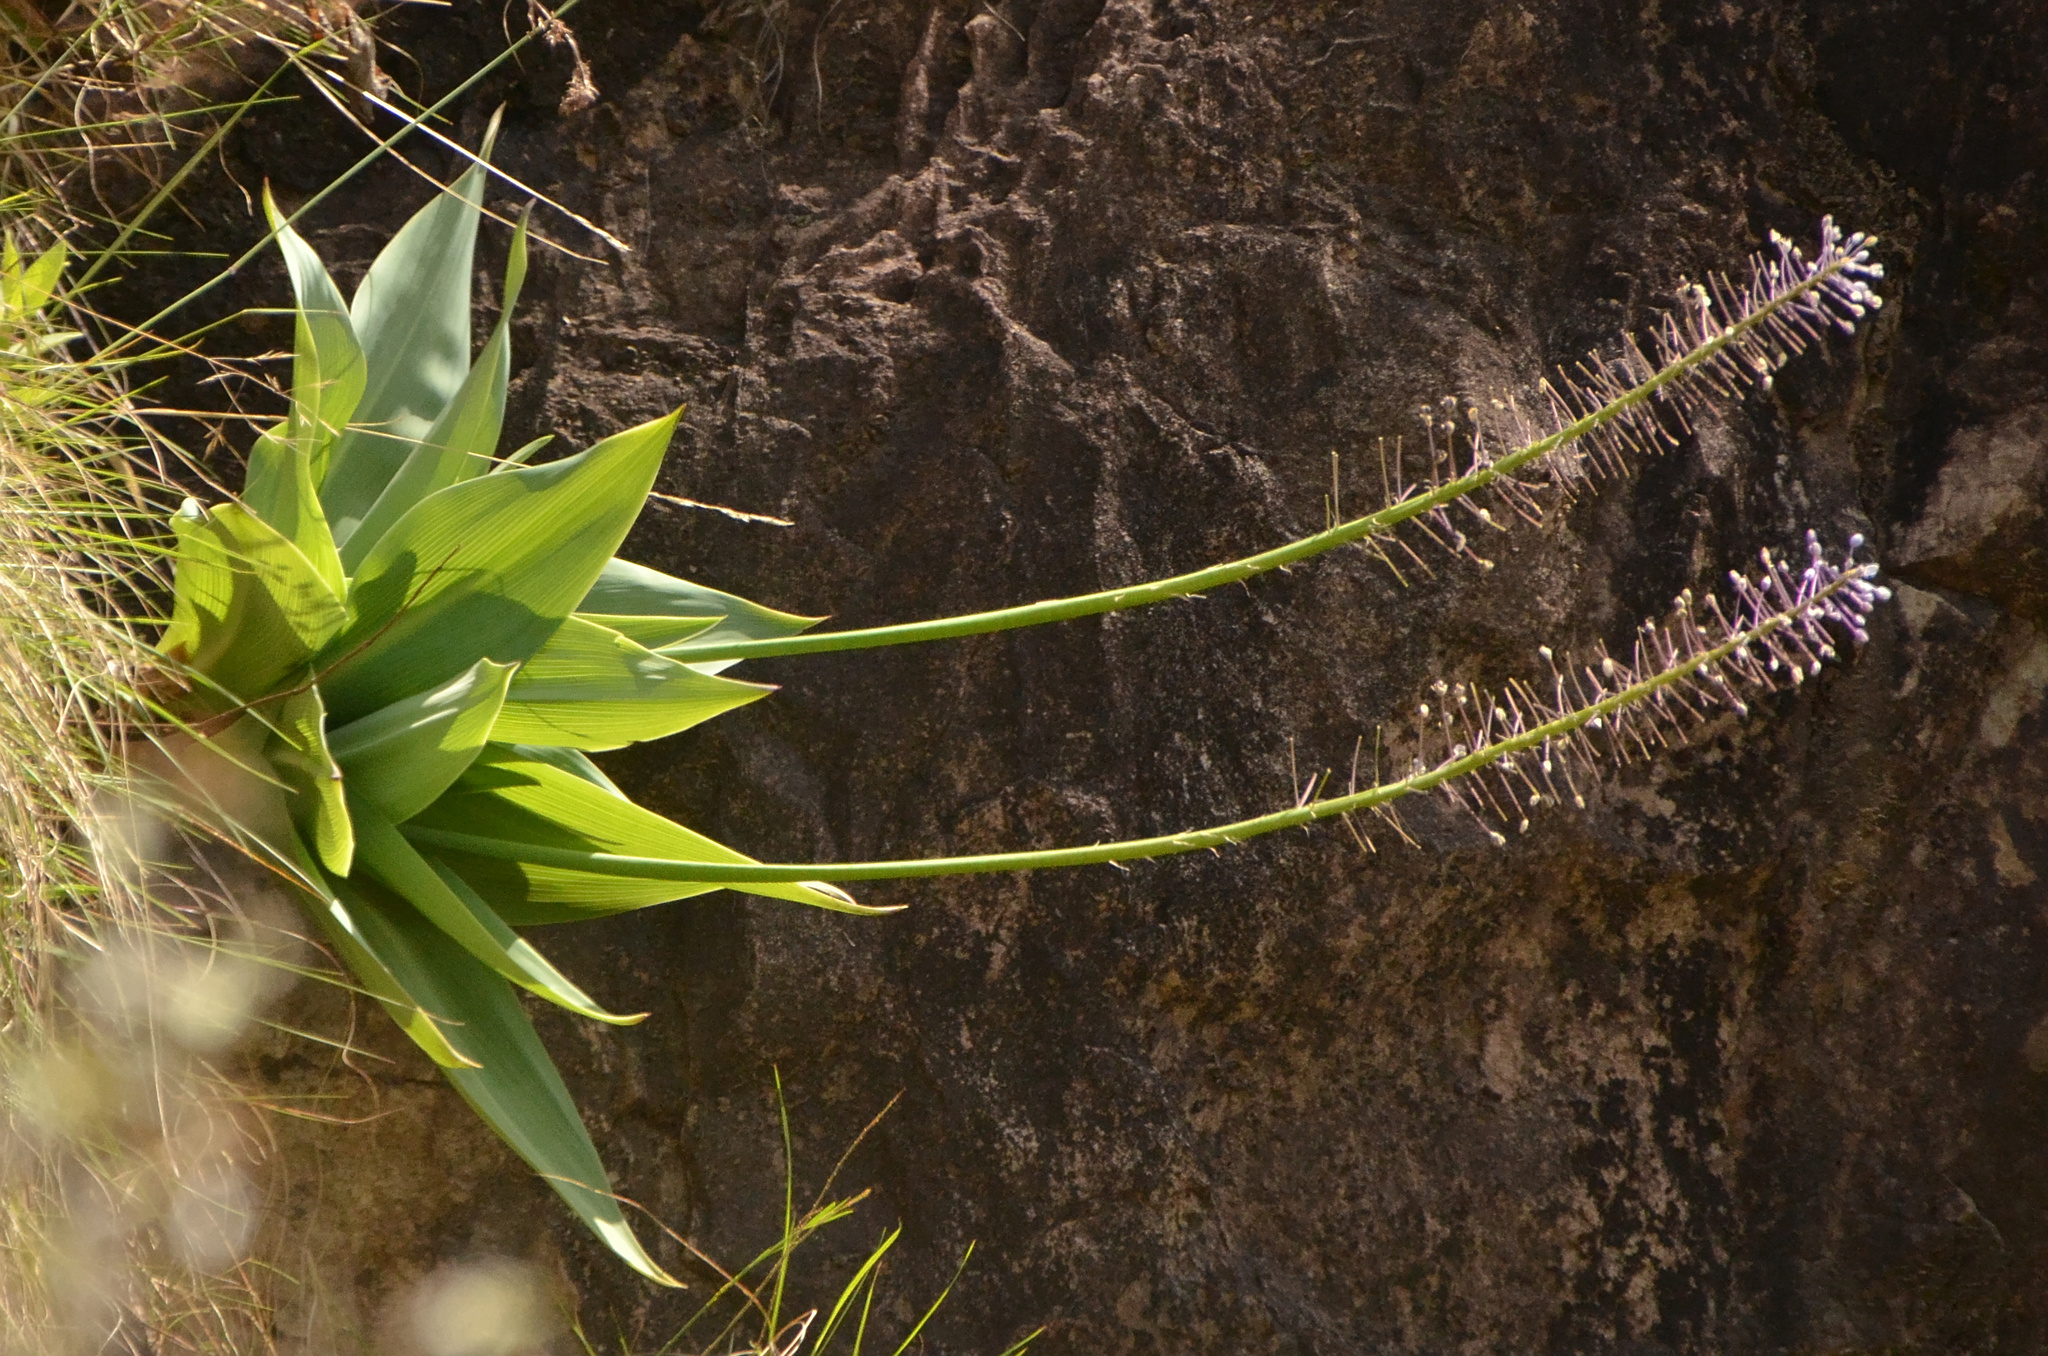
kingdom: Plantae
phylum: Tracheophyta
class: Liliopsida
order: Asparagales
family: Asparagaceae
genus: Merwilla
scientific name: Merwilla plumbea
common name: Blue-squill
